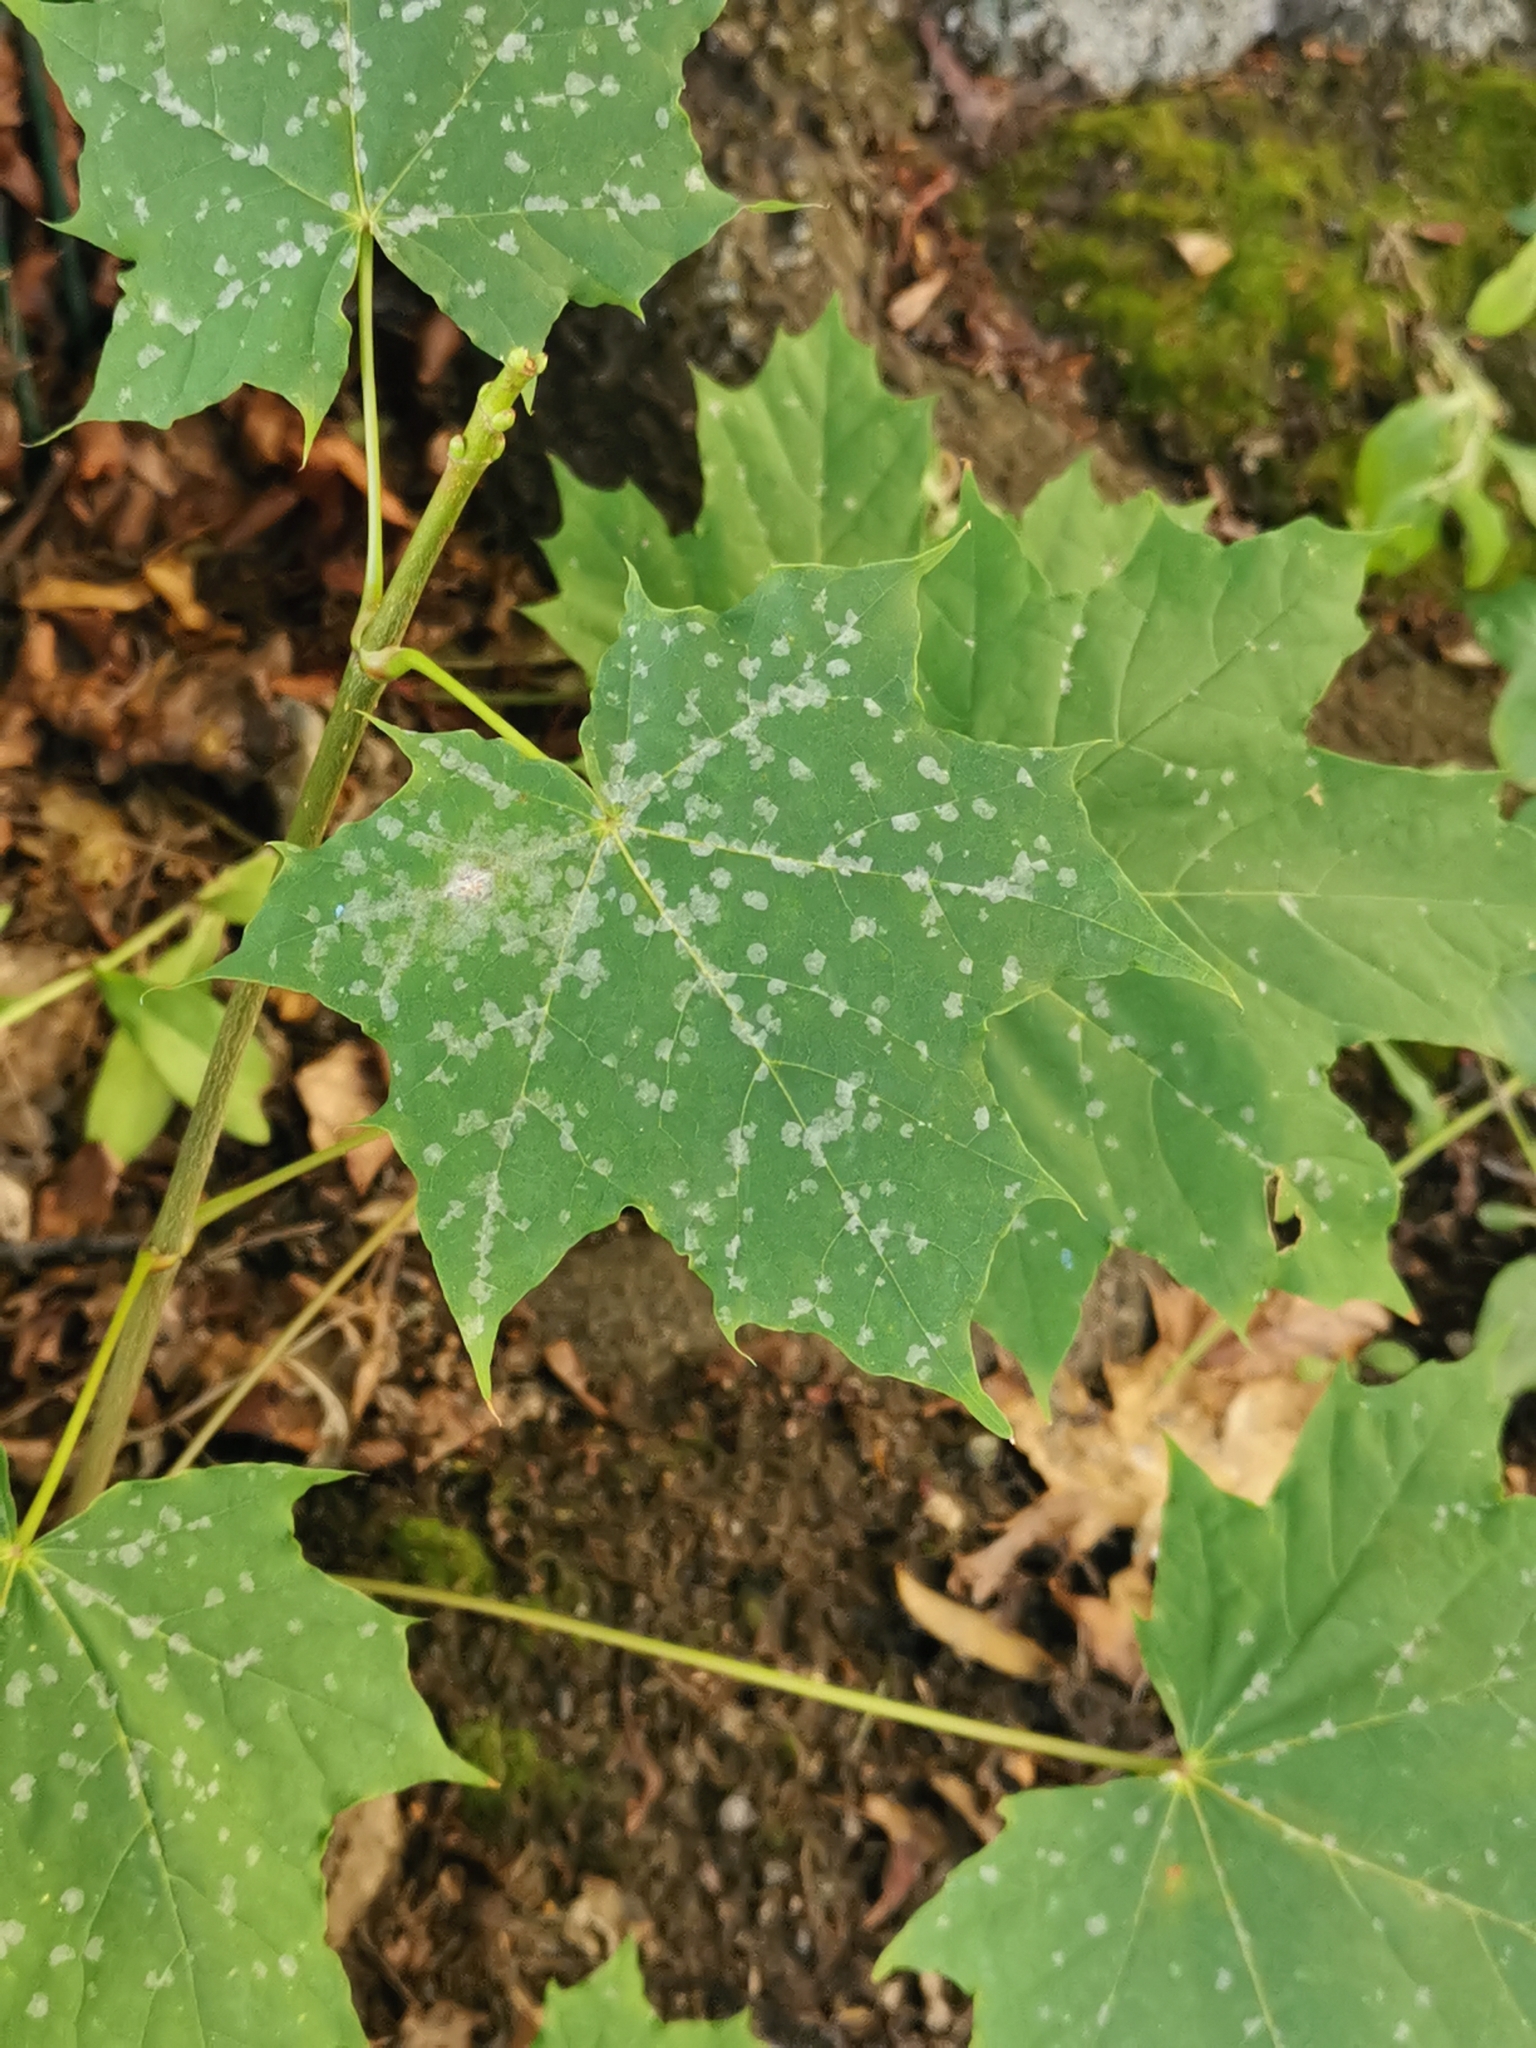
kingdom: Fungi
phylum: Ascomycota
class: Leotiomycetes
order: Helotiales
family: Erysiphaceae
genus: Sawadaea
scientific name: Sawadaea tulasnei
